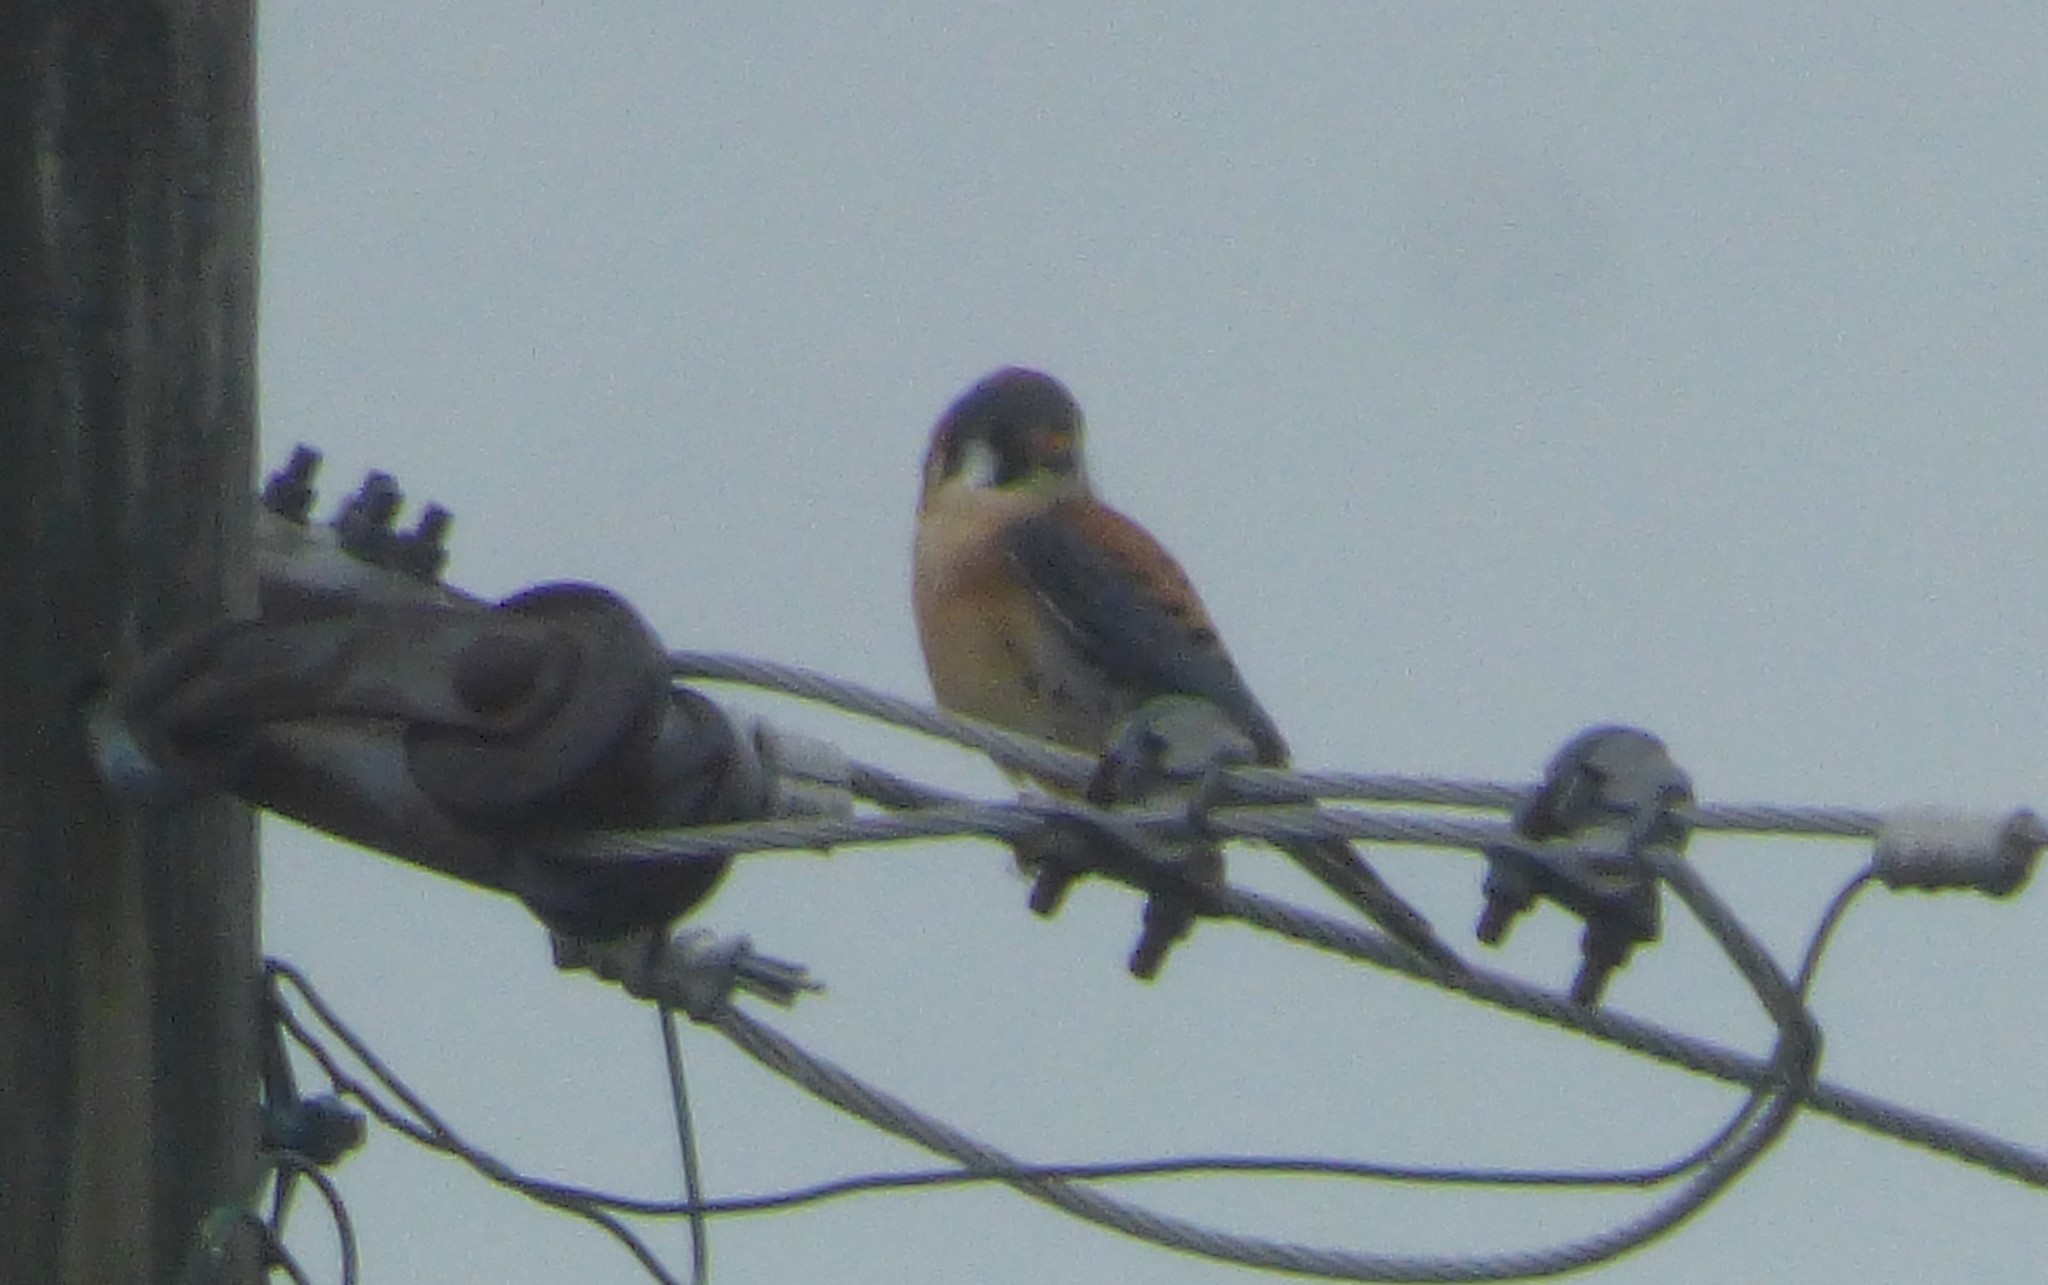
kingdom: Animalia
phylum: Chordata
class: Aves
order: Falconiformes
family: Falconidae
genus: Falco
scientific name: Falco sparverius
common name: American kestrel
